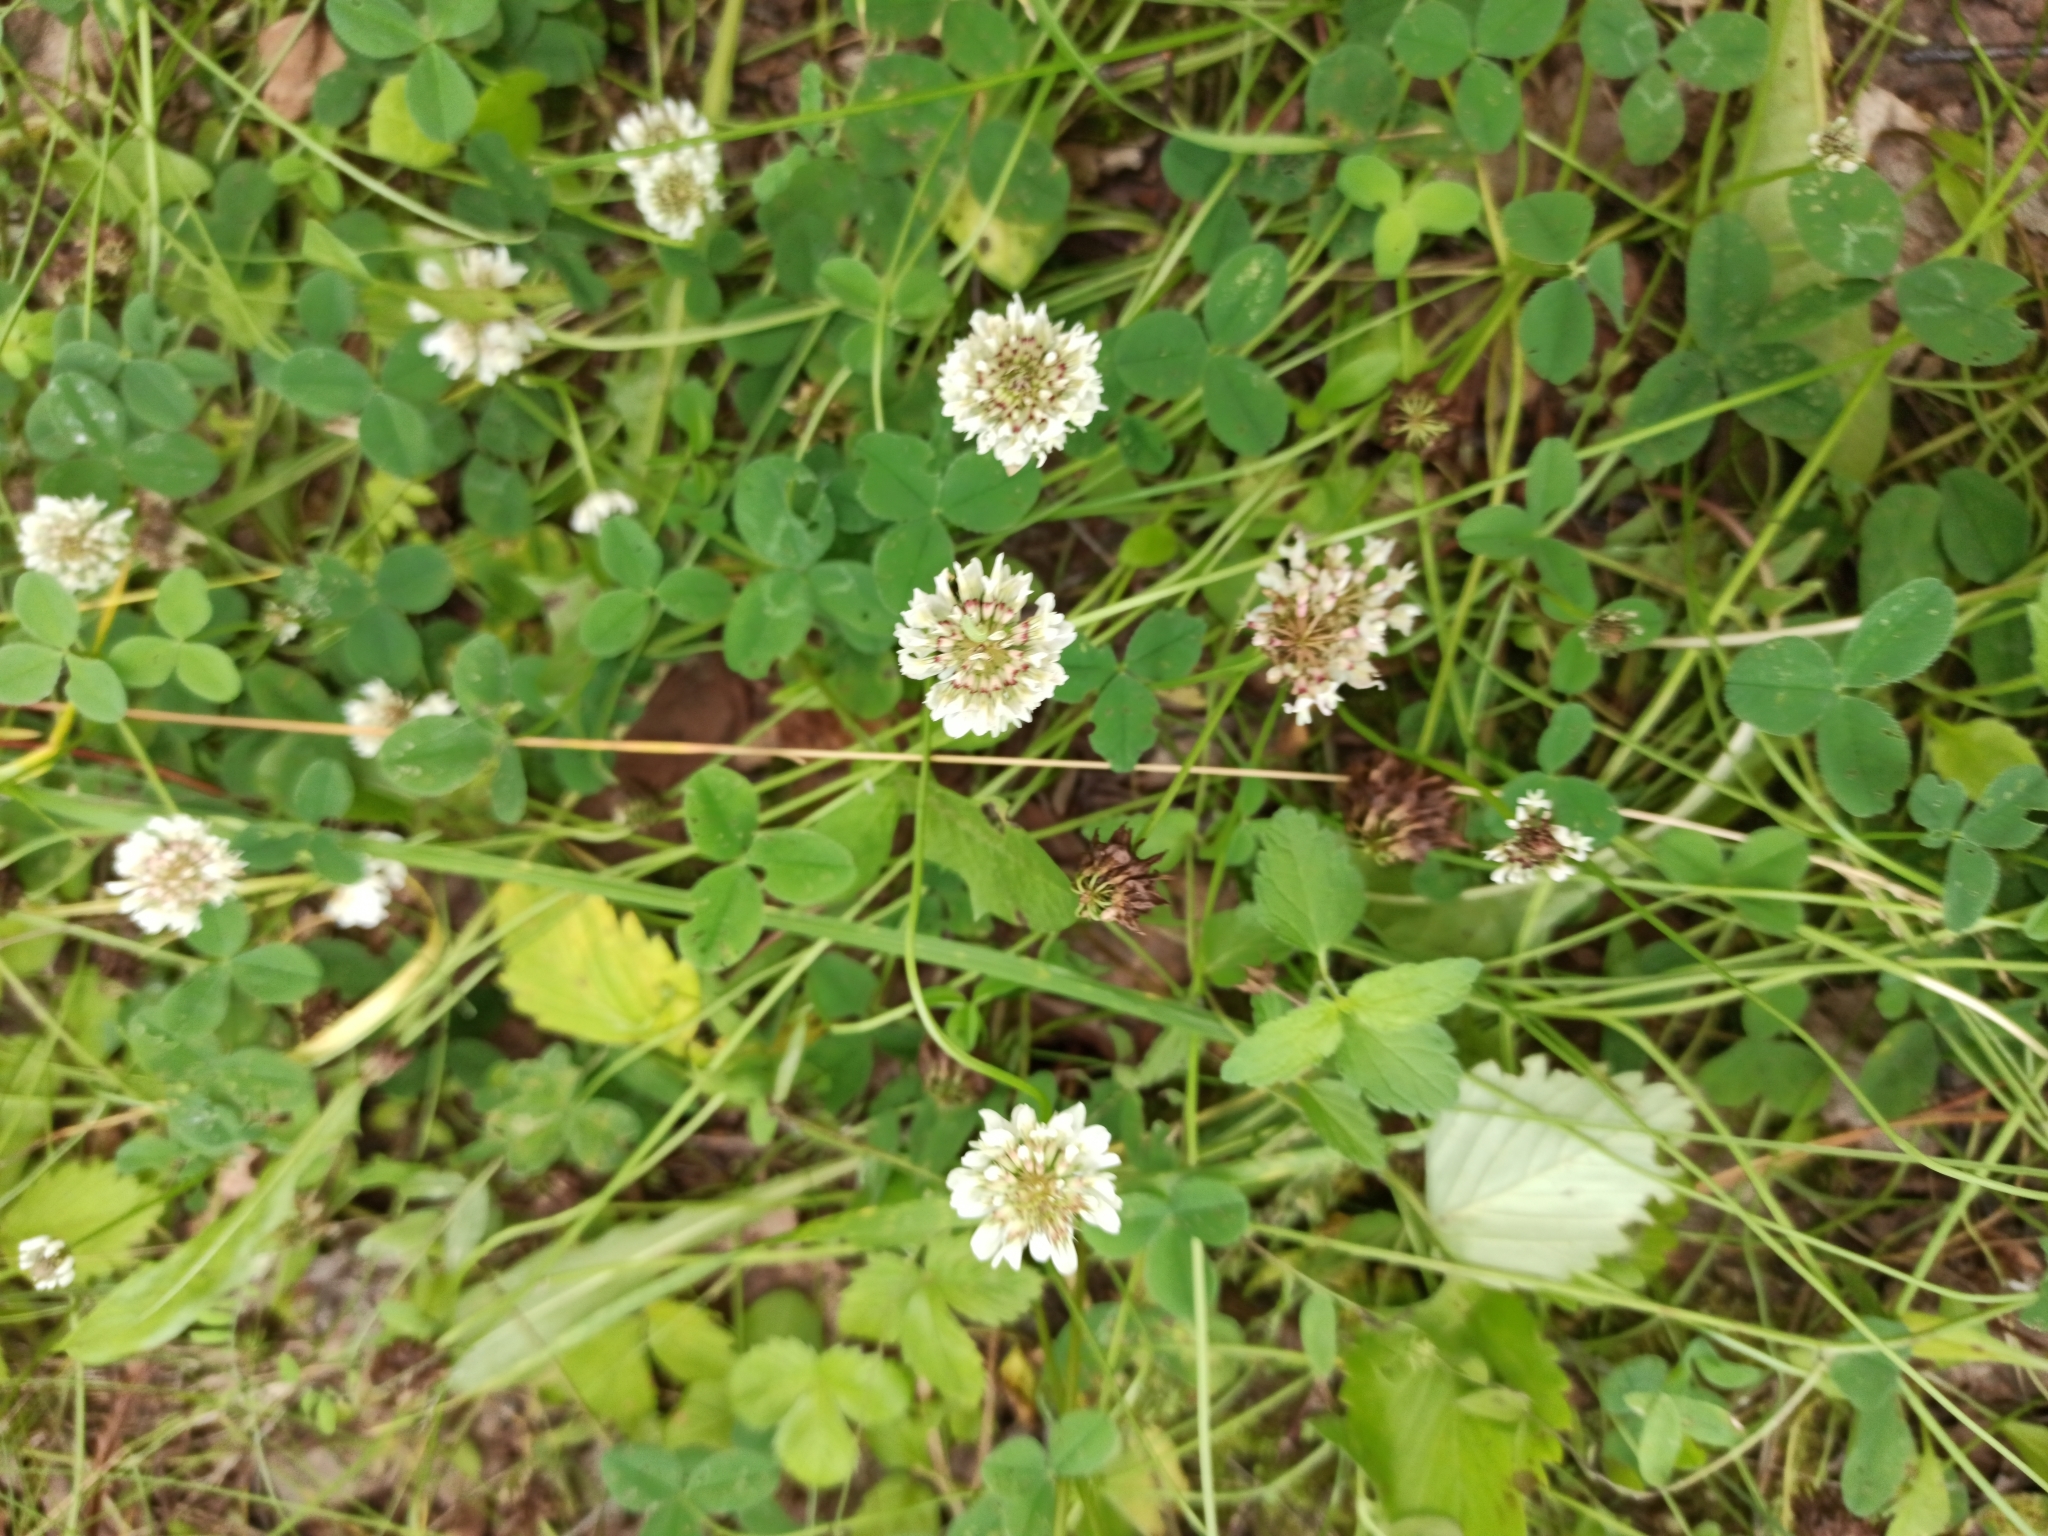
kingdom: Plantae
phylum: Tracheophyta
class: Magnoliopsida
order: Fabales
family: Fabaceae
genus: Trifolium
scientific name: Trifolium repens
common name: White clover
